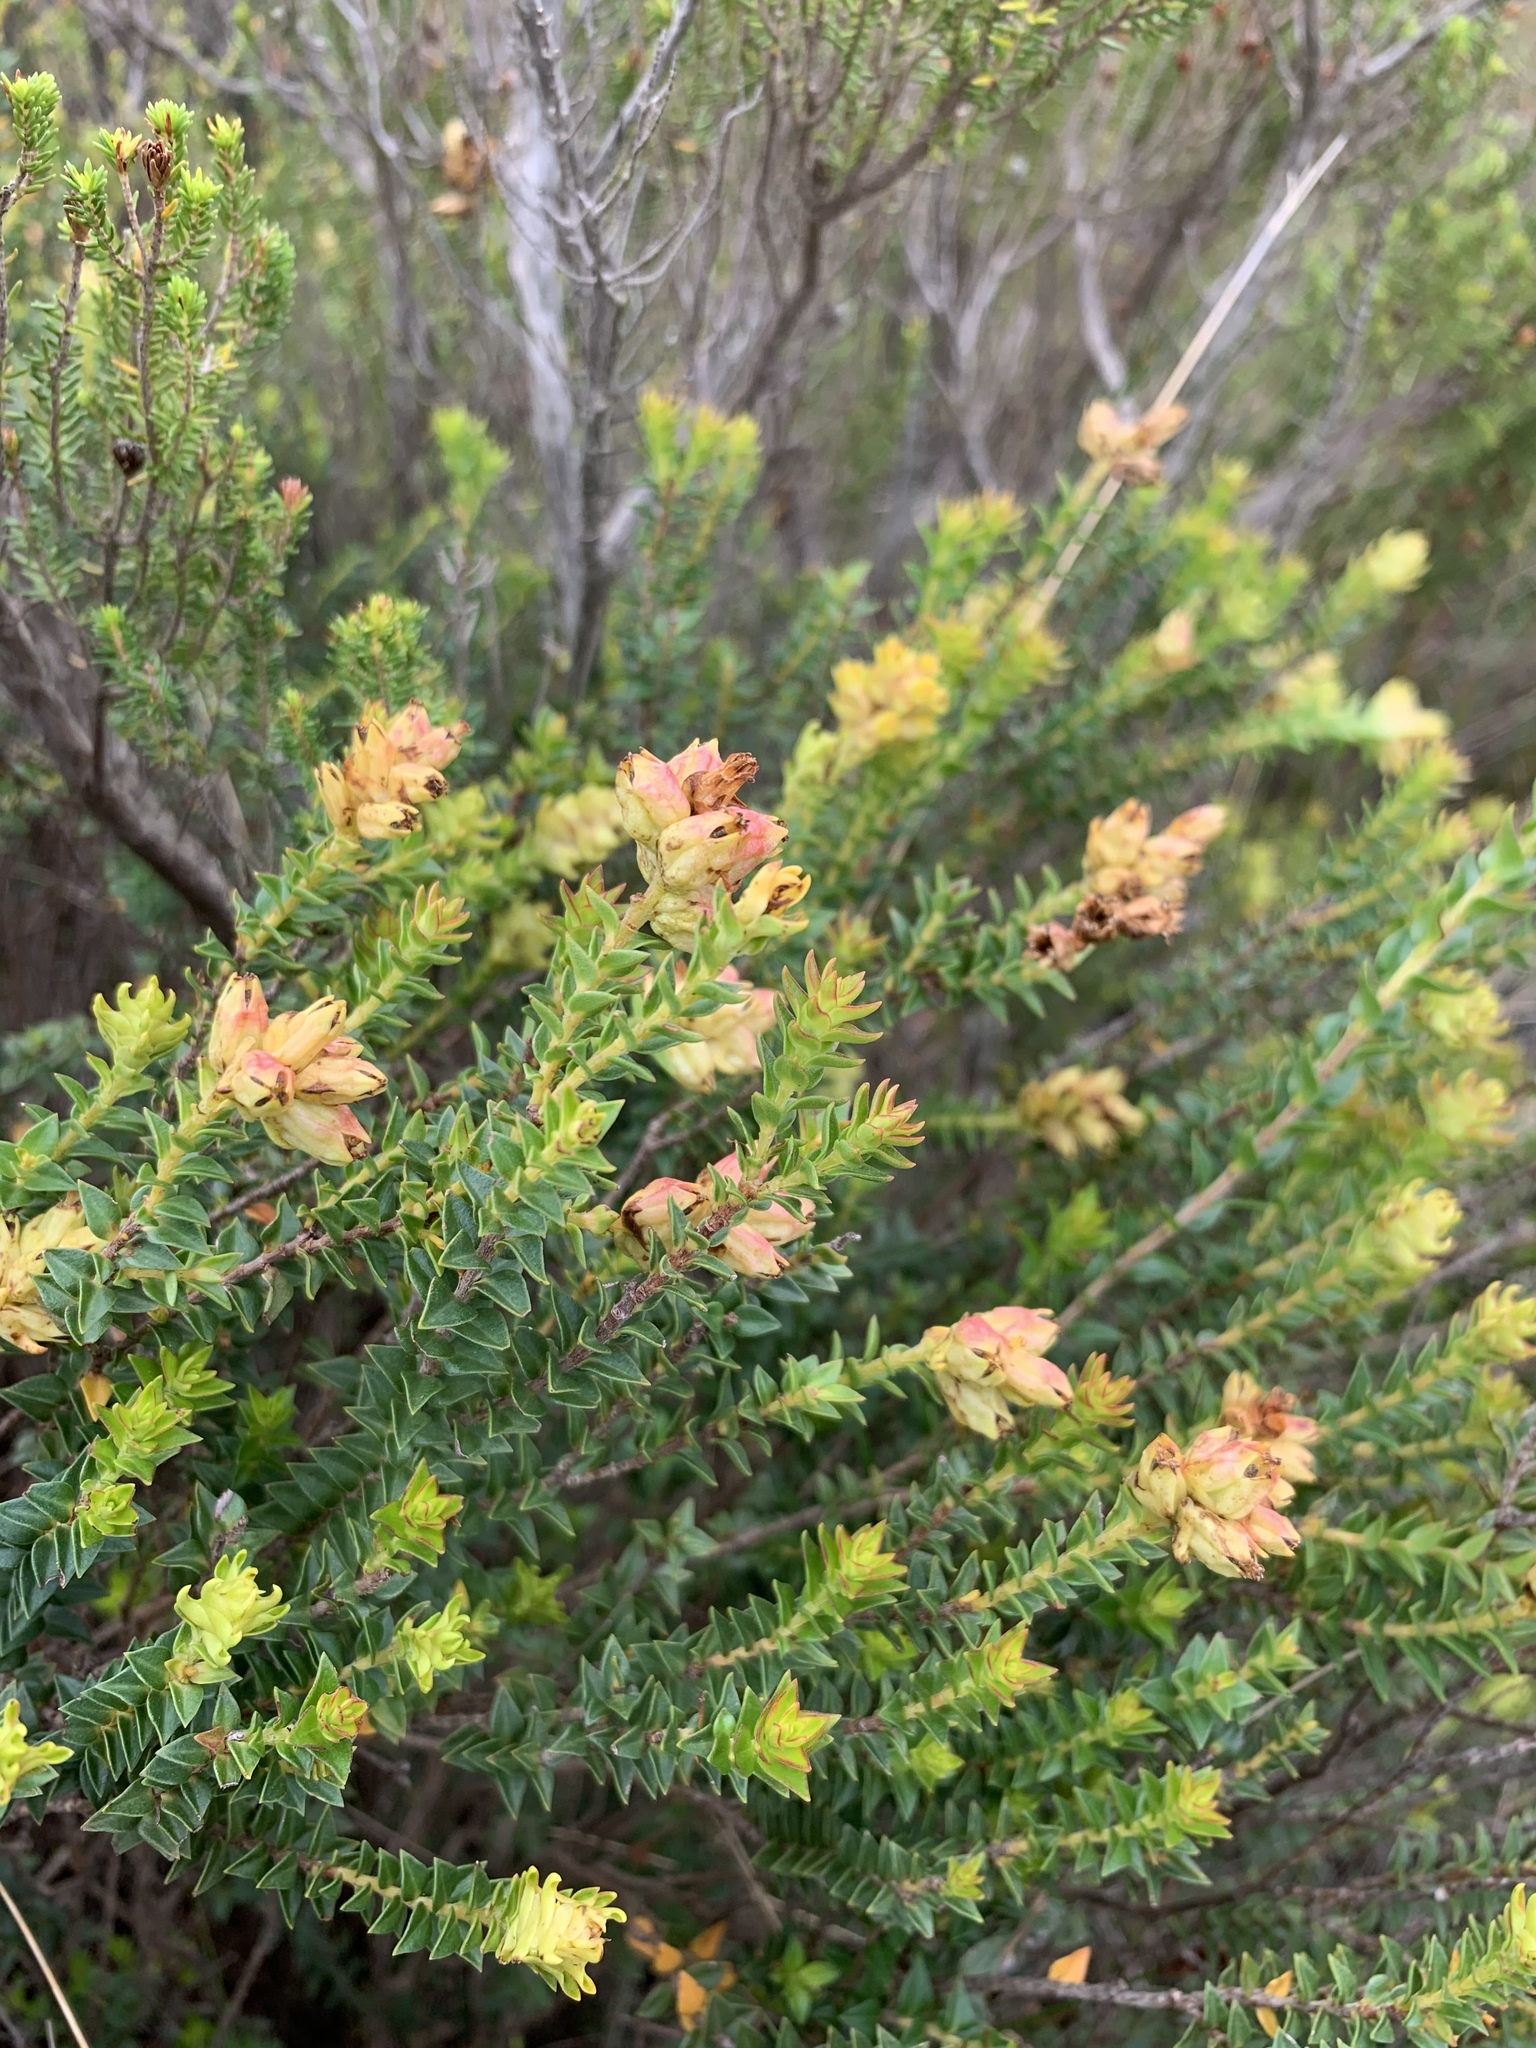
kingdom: Plantae
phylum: Tracheophyta
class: Magnoliopsida
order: Myrtales
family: Penaeaceae
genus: Penaea
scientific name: Penaea mucronata
